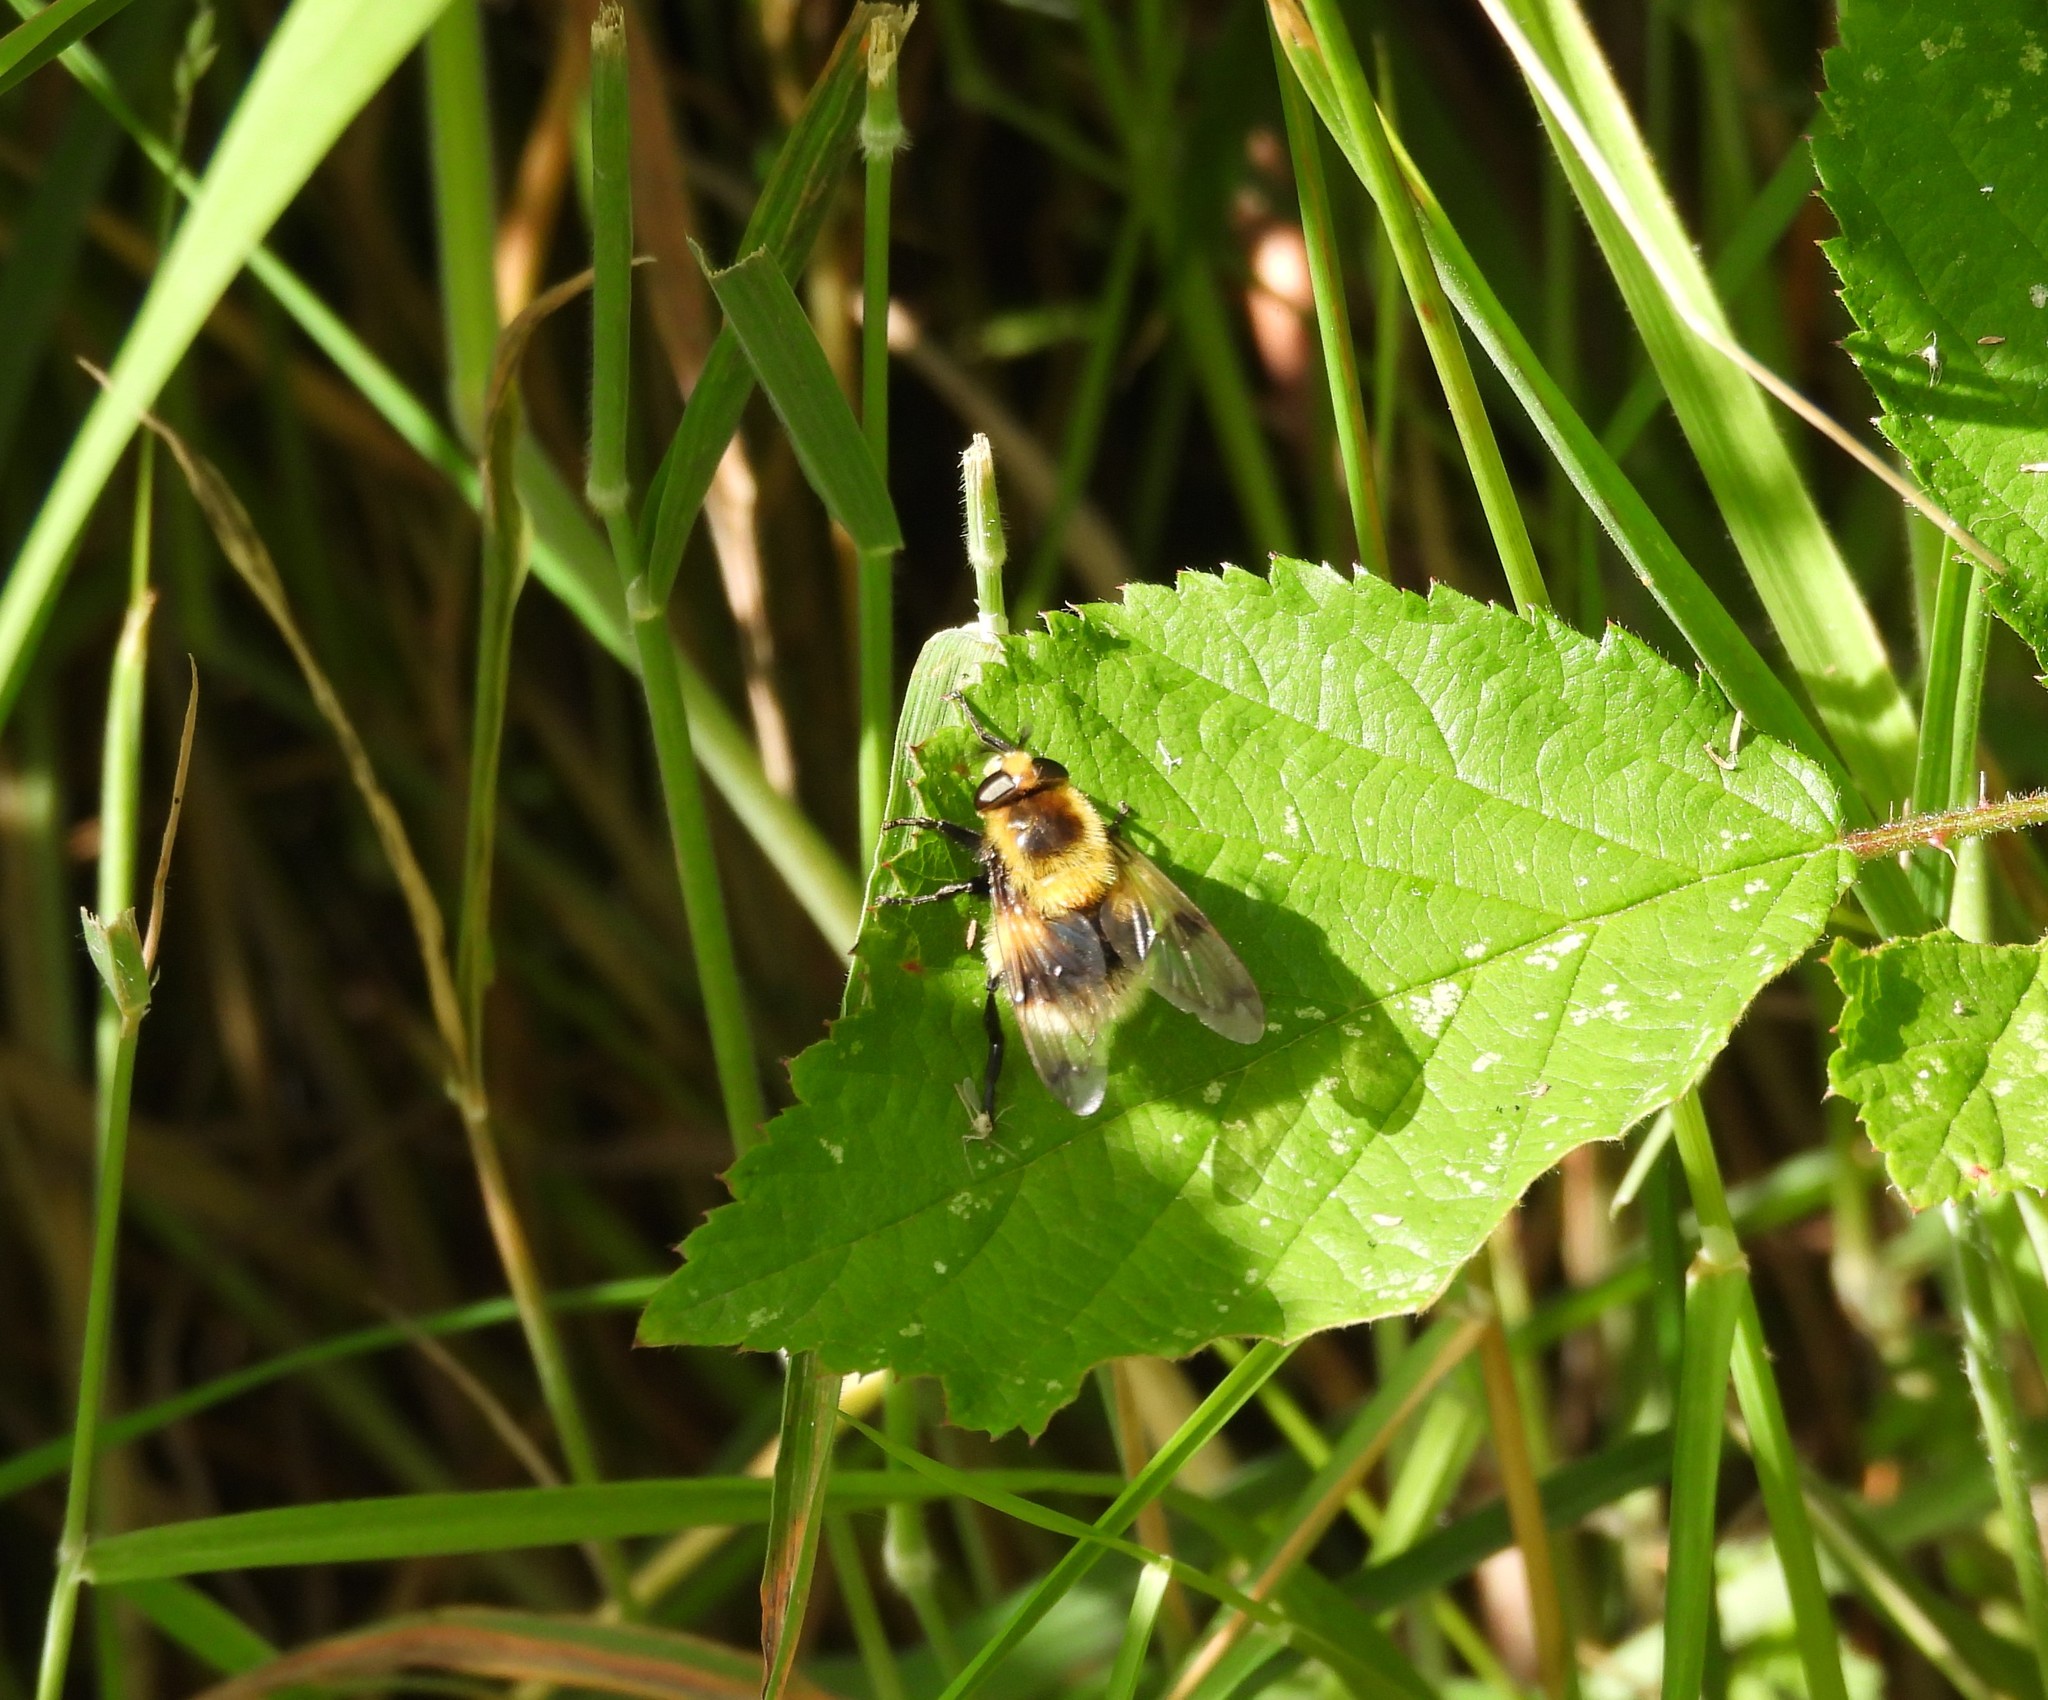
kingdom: Animalia
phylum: Arthropoda
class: Insecta
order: Diptera
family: Syrphidae
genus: Volucella
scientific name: Volucella bombylans
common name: Bumble bee hover fly
